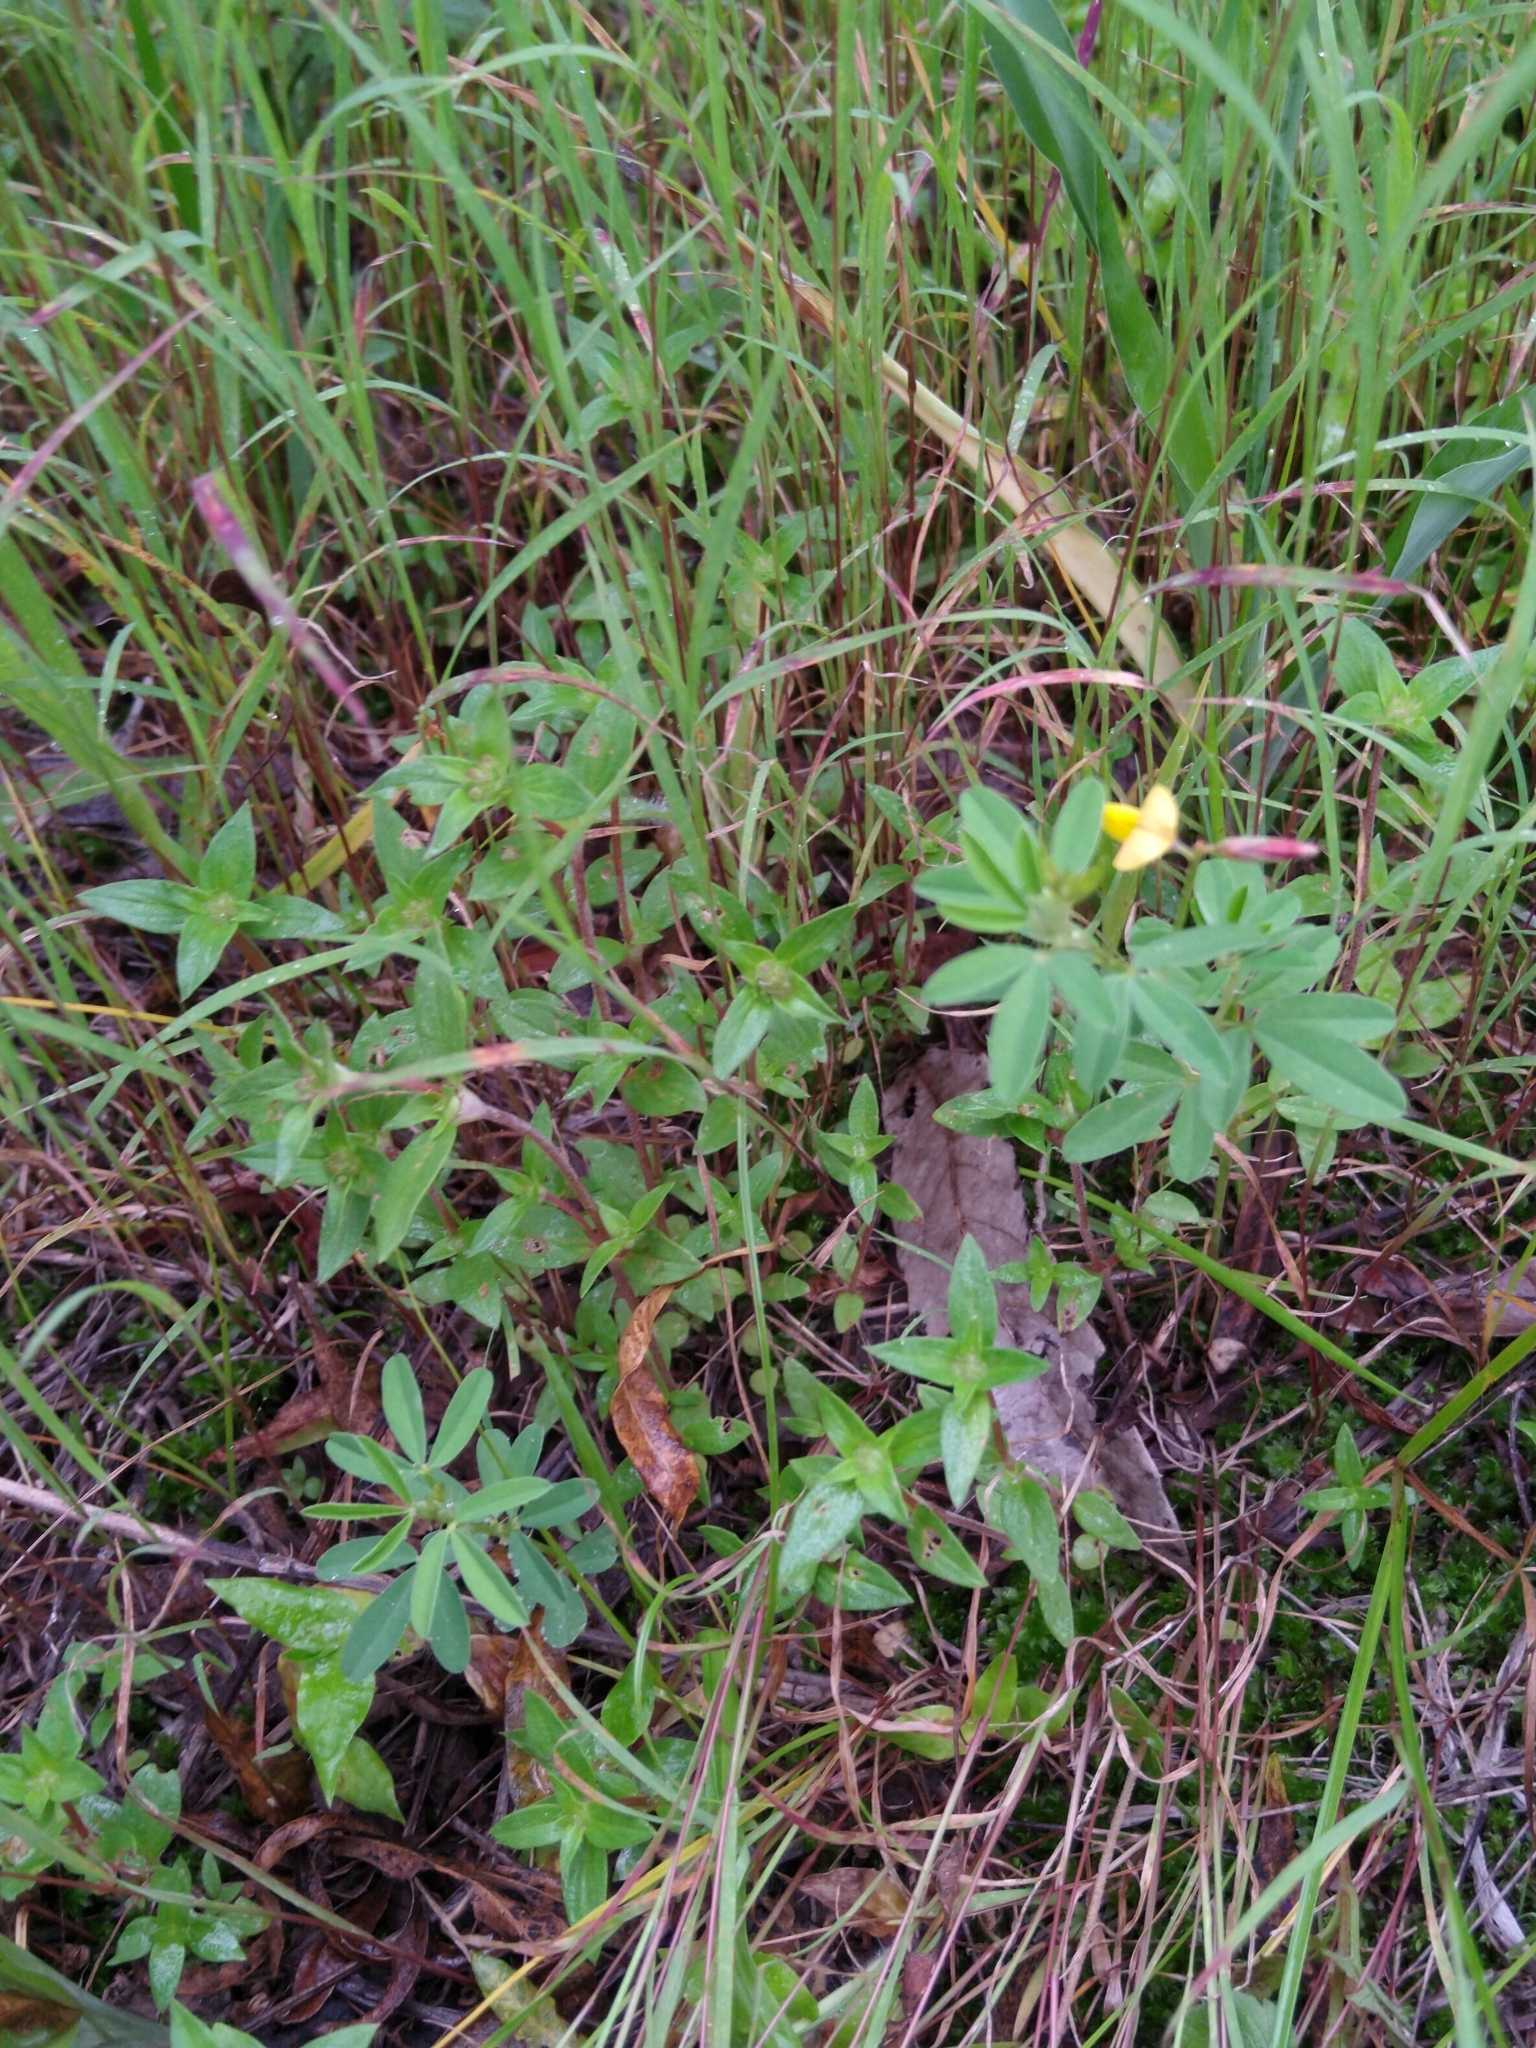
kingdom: Plantae
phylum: Tracheophyta
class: Magnoliopsida
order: Fabales
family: Fabaceae
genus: Crotalaria
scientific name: Crotalaria pumila
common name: Low rattlebox
